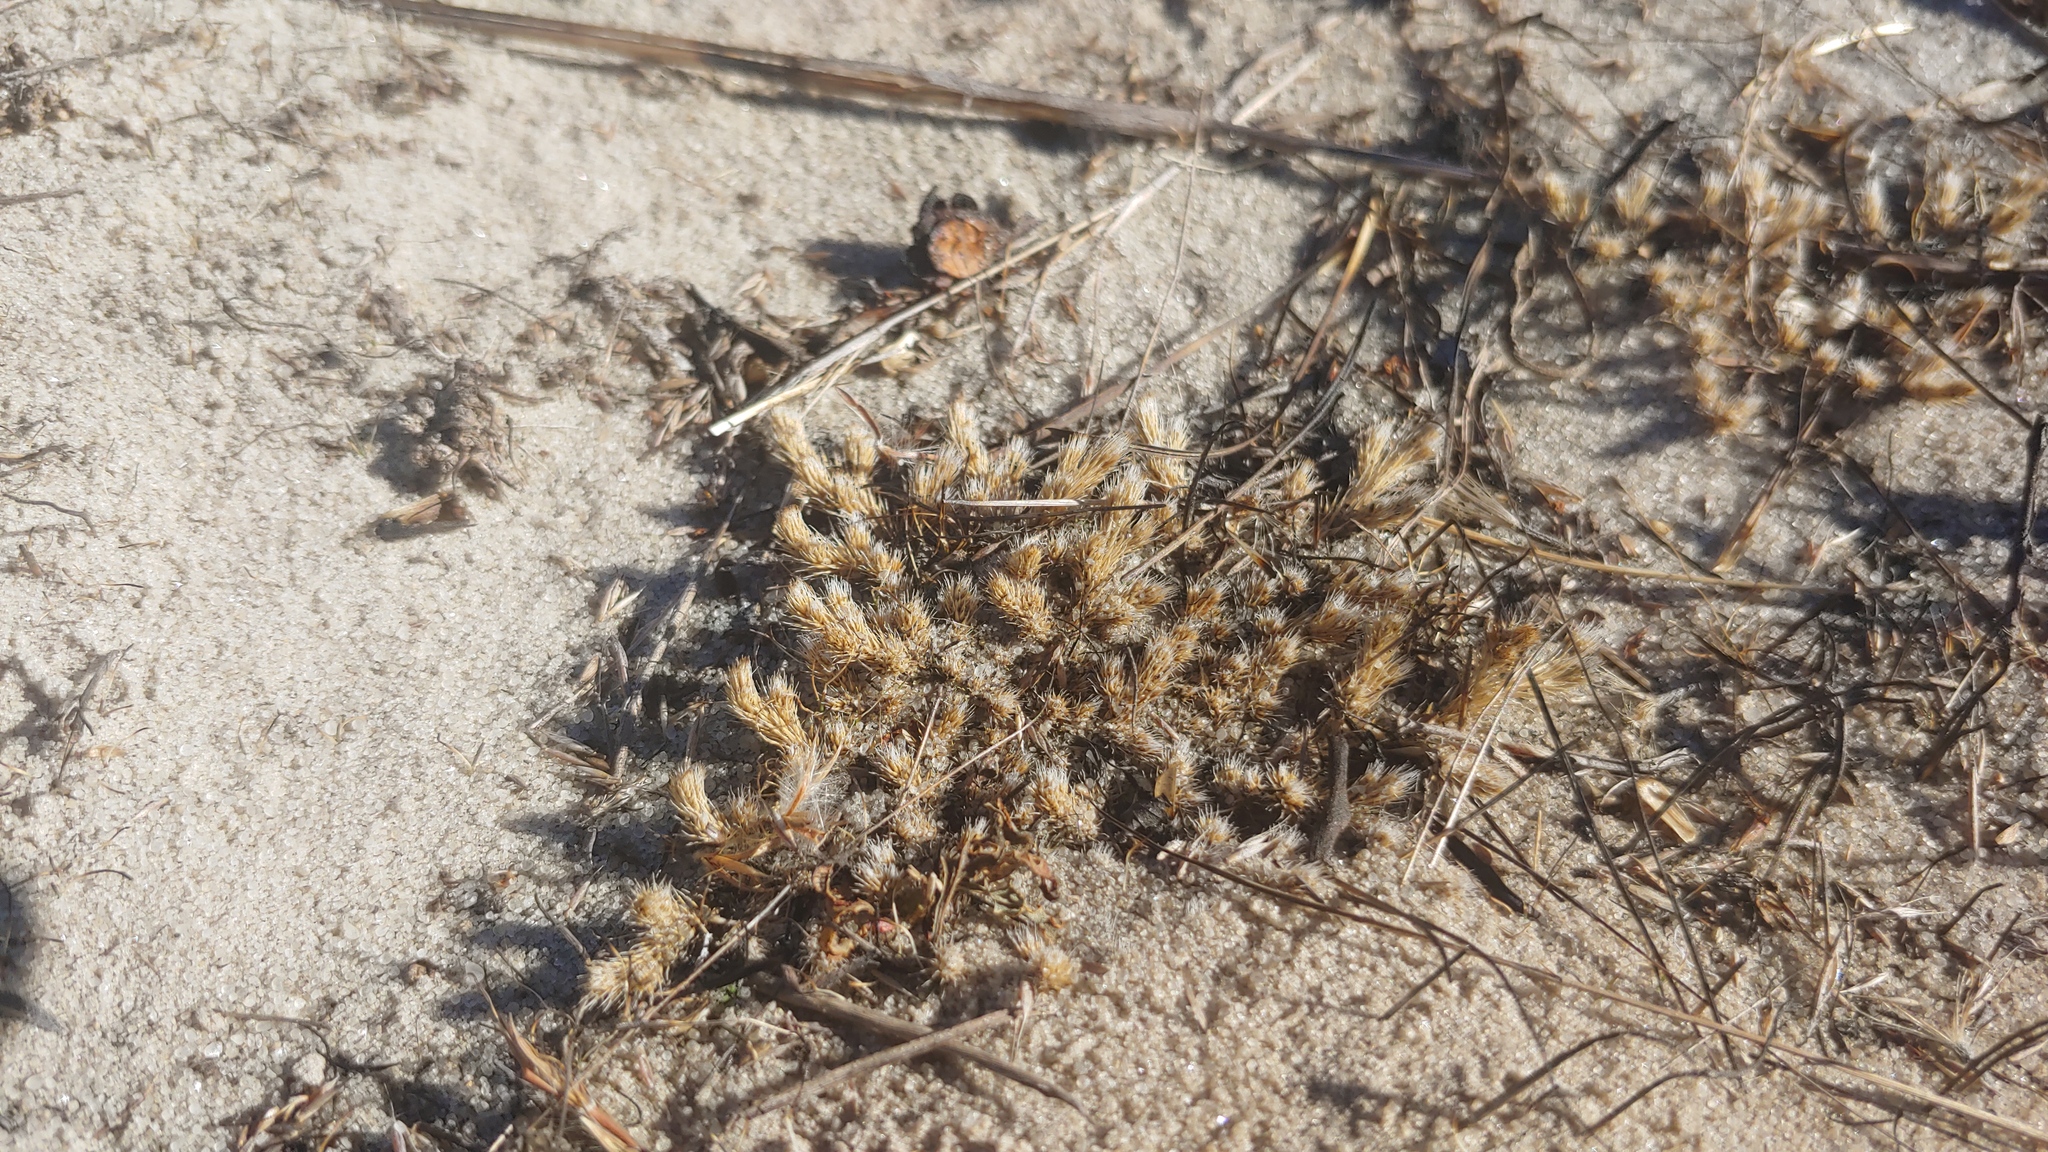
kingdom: Plantae
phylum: Tracheophyta
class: Lycopodiopsida
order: Selaginellales
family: Selaginellaceae
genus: Selaginella
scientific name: Selaginella rupestris
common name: Dwarf spikemoss
